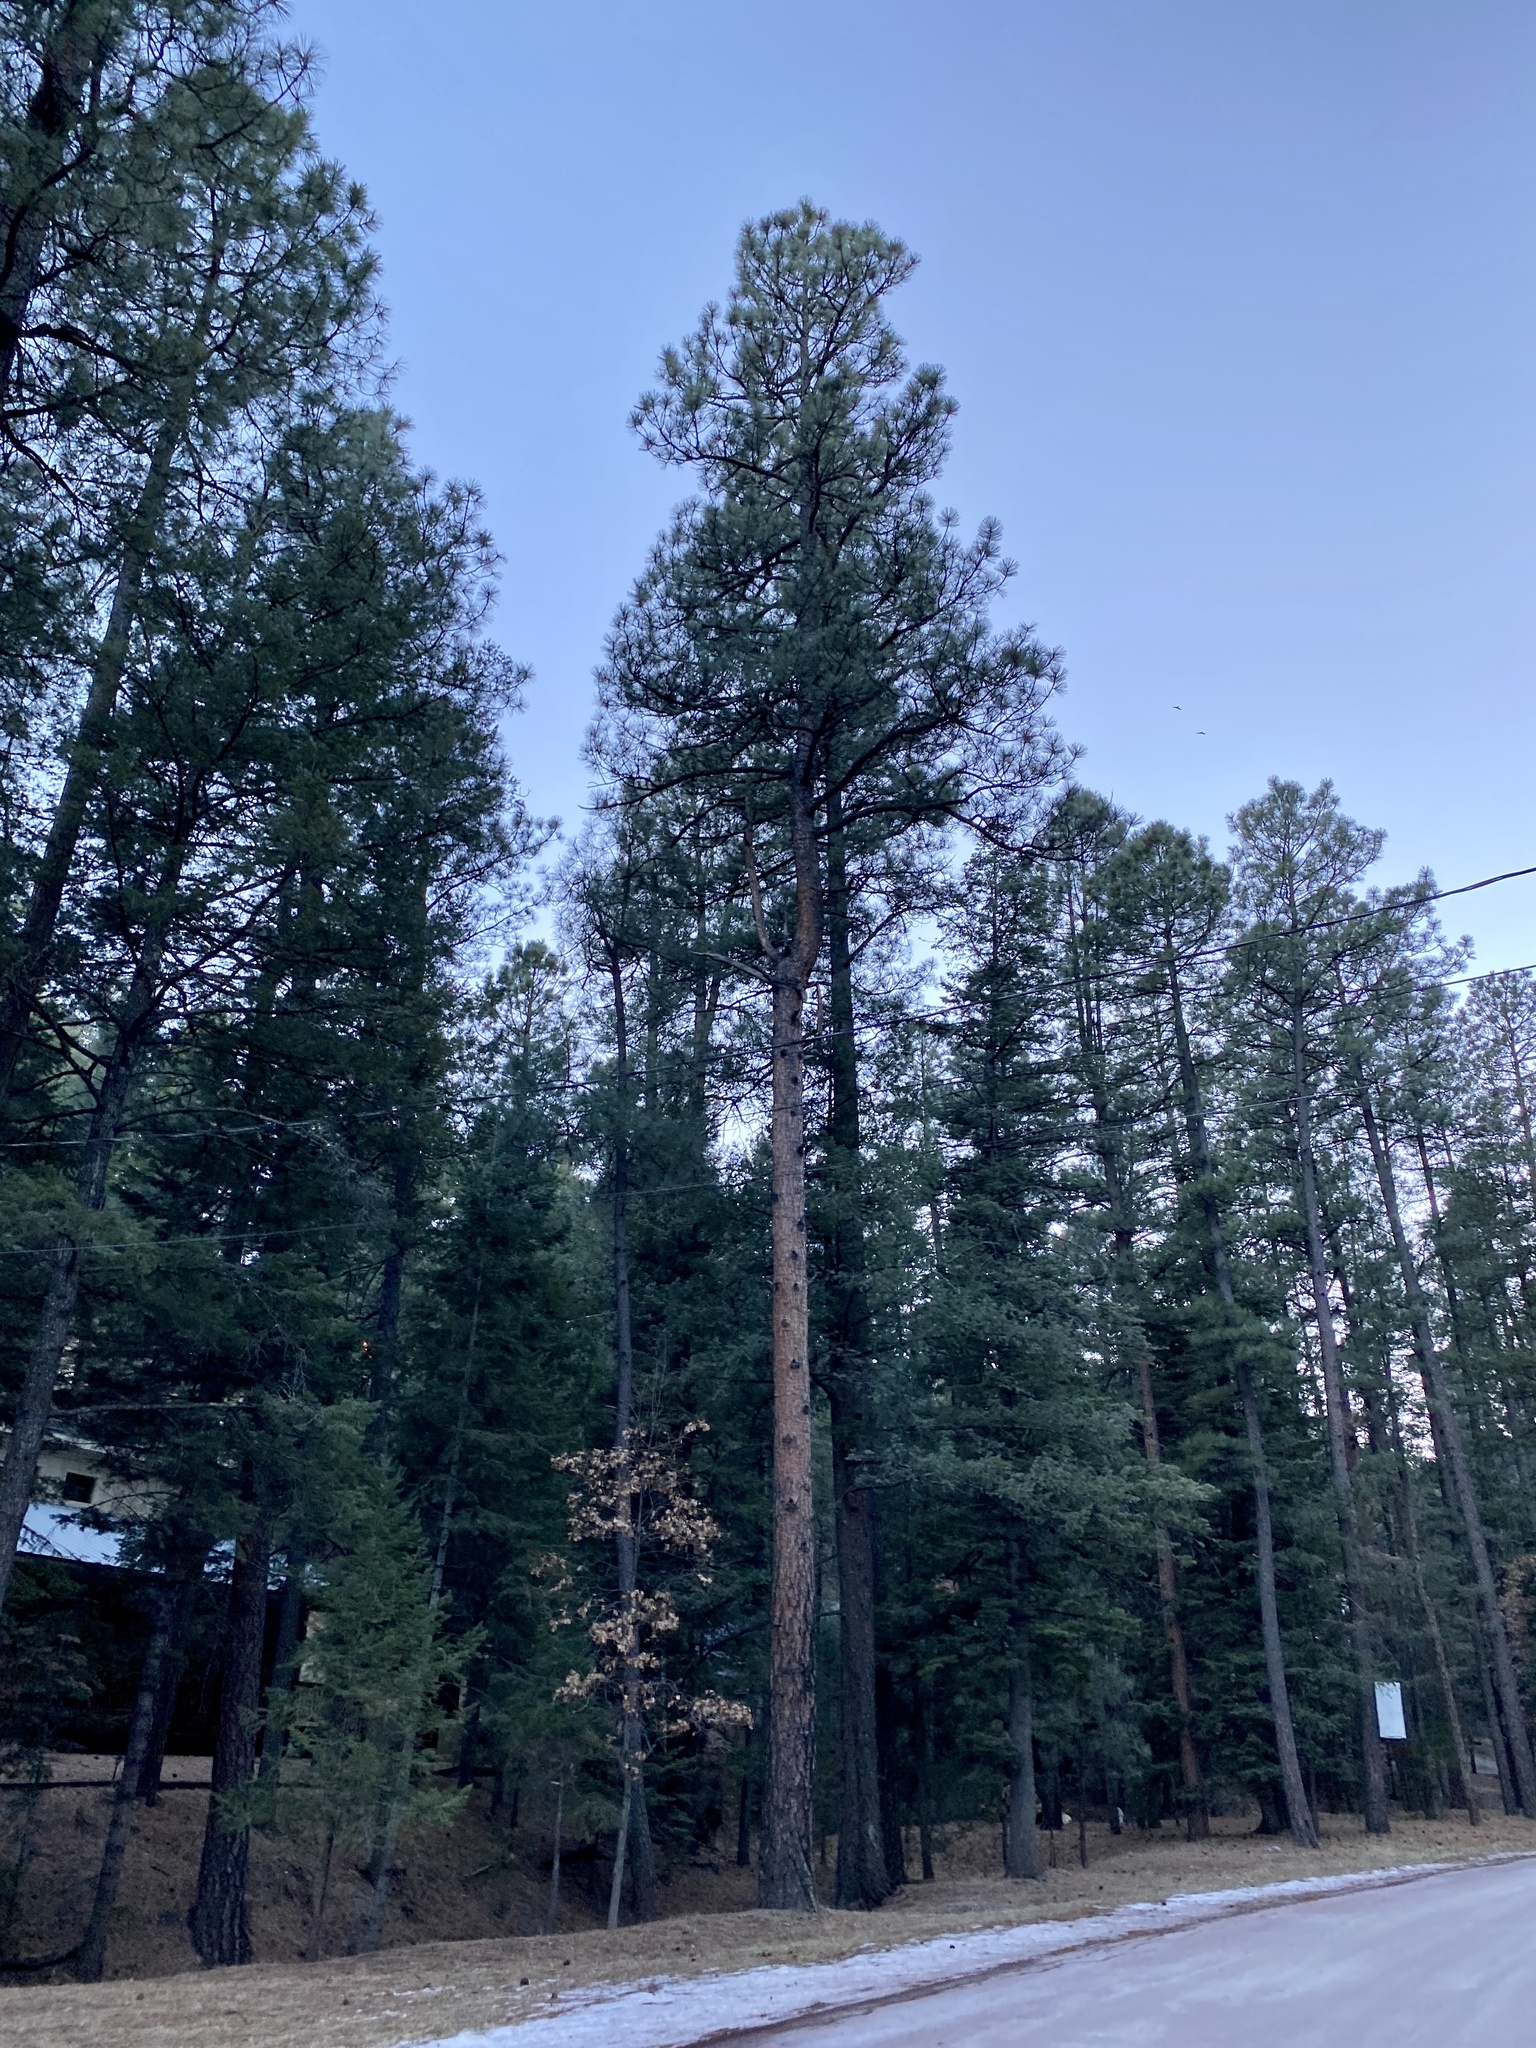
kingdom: Plantae
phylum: Tracheophyta
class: Pinopsida
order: Pinales
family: Pinaceae
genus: Pinus
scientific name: Pinus ponderosa
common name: Western yellow-pine
